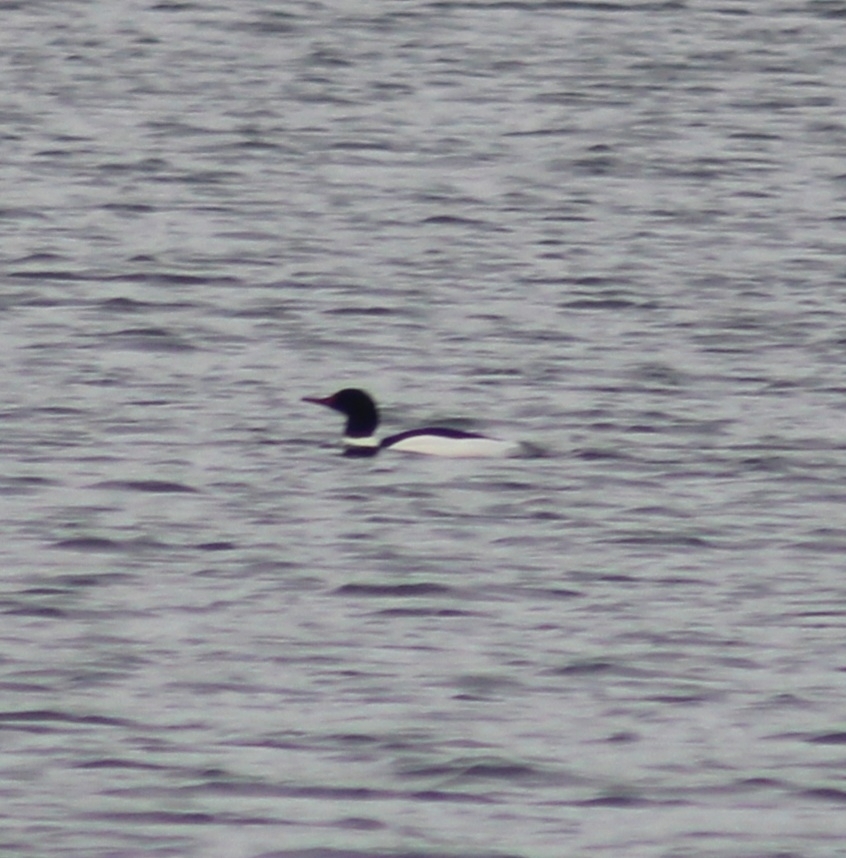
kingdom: Animalia
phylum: Chordata
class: Aves
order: Anseriformes
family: Anatidae
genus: Mergus
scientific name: Mergus merganser
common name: Common merganser
